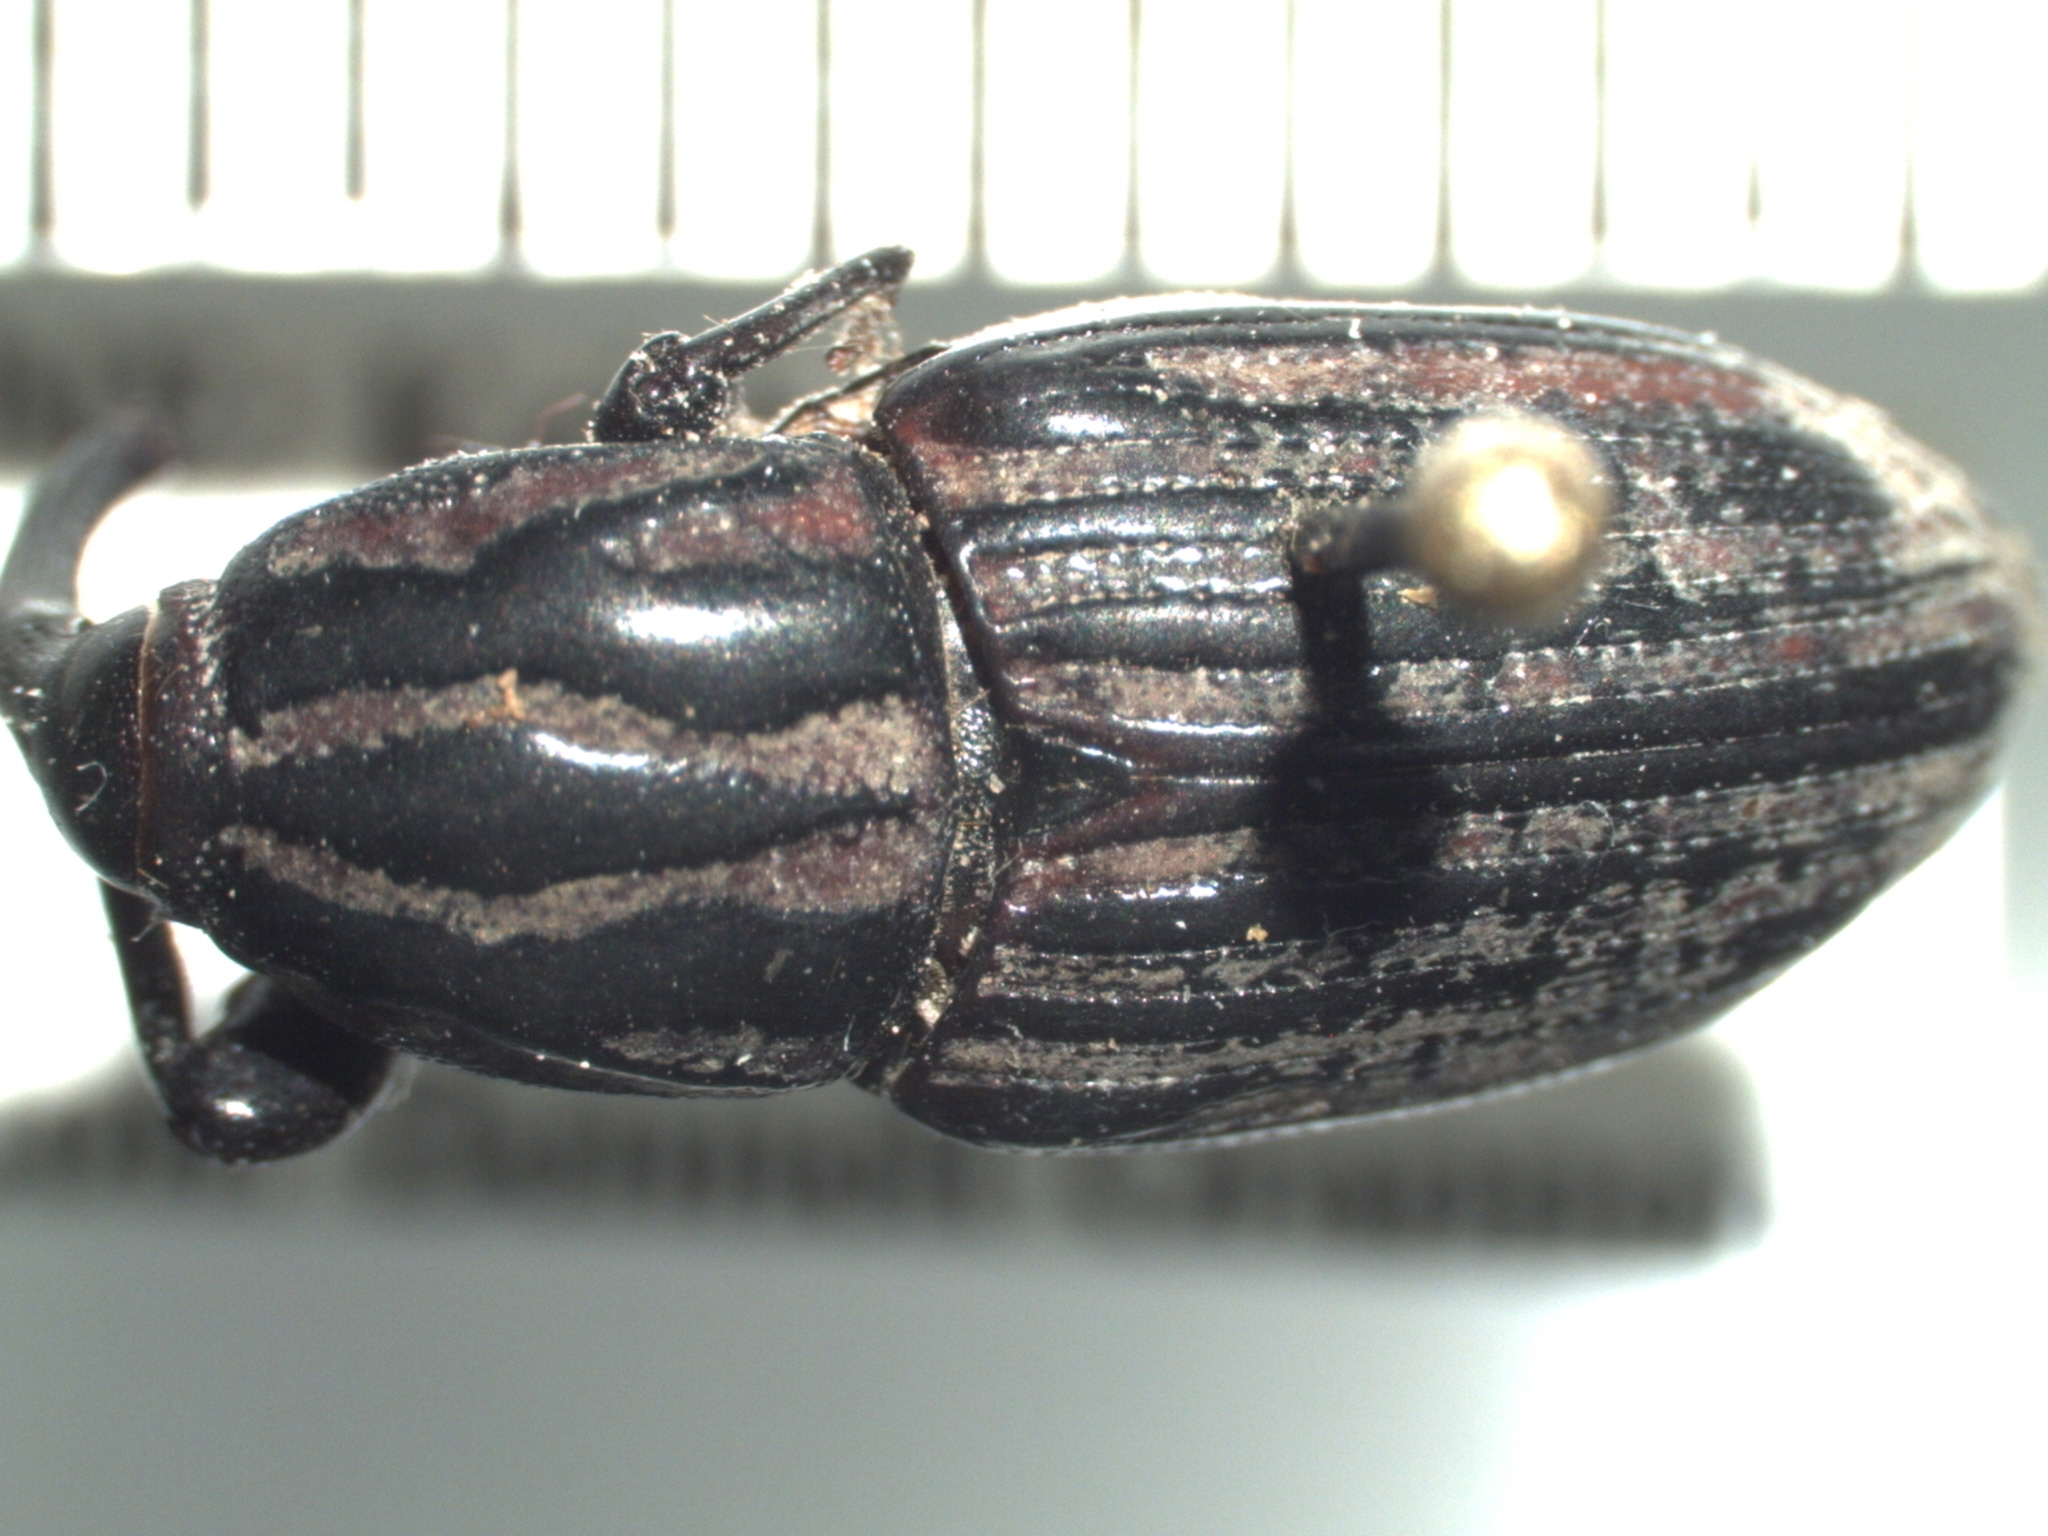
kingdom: Animalia
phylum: Arthropoda
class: Insecta
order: Coleoptera
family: Dryophthoridae
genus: Sphenophorus
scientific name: Sphenophorus australis
